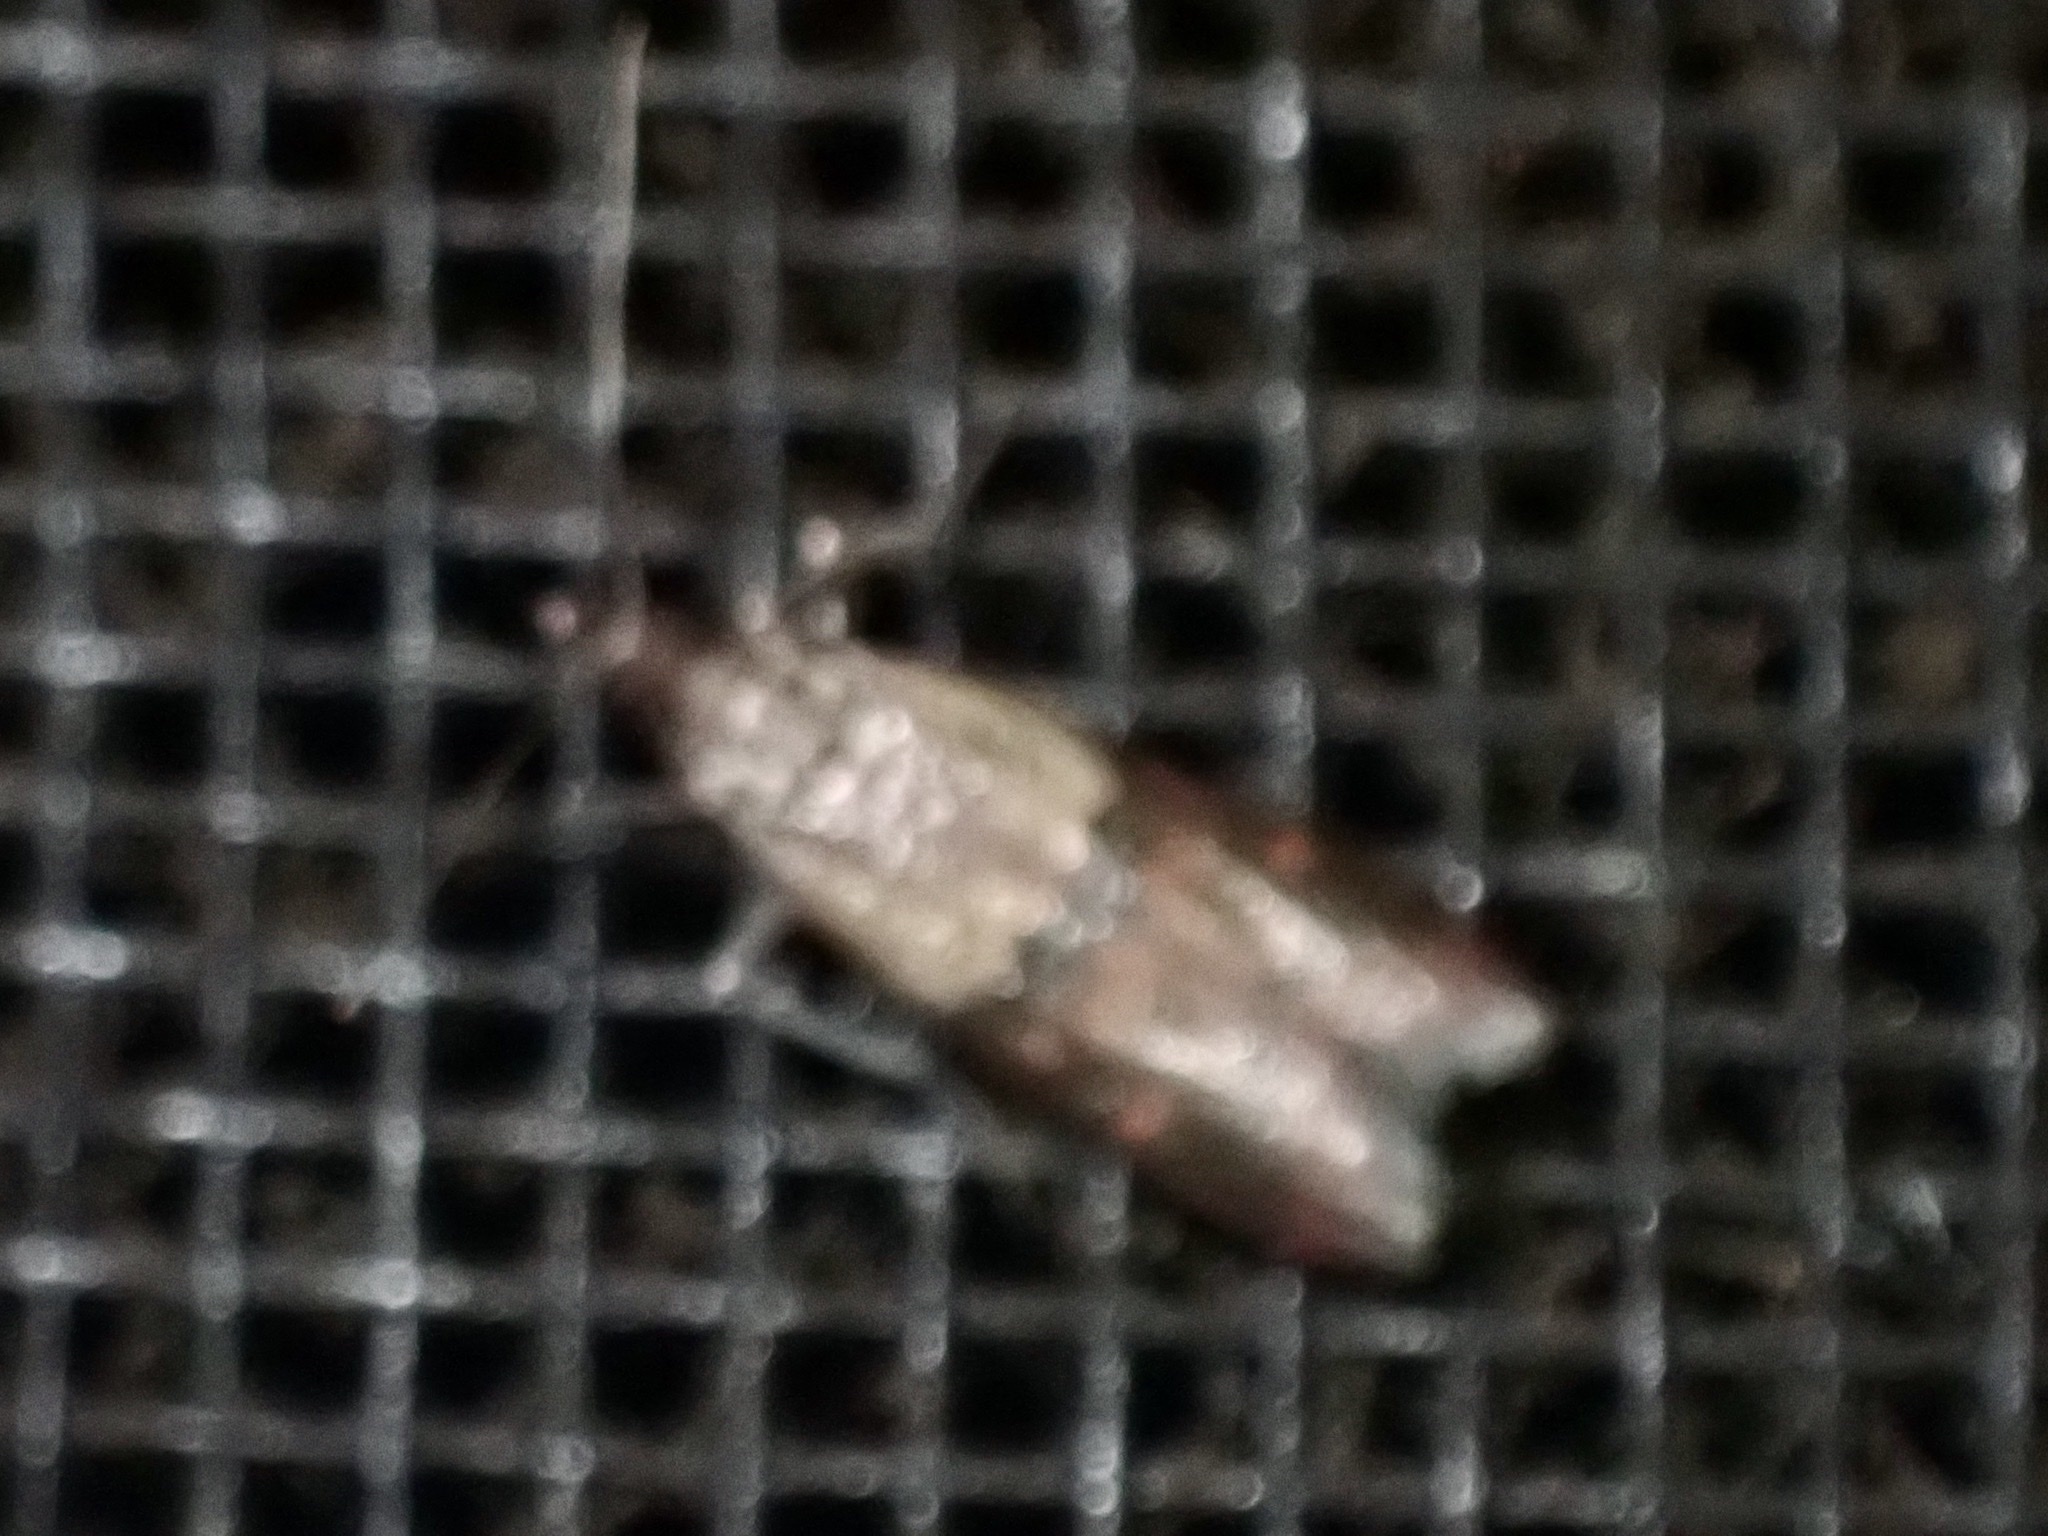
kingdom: Animalia
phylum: Arthropoda
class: Insecta
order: Lepidoptera
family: Pyralidae
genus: Plodia
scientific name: Plodia interpunctella
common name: Indian meal moth
